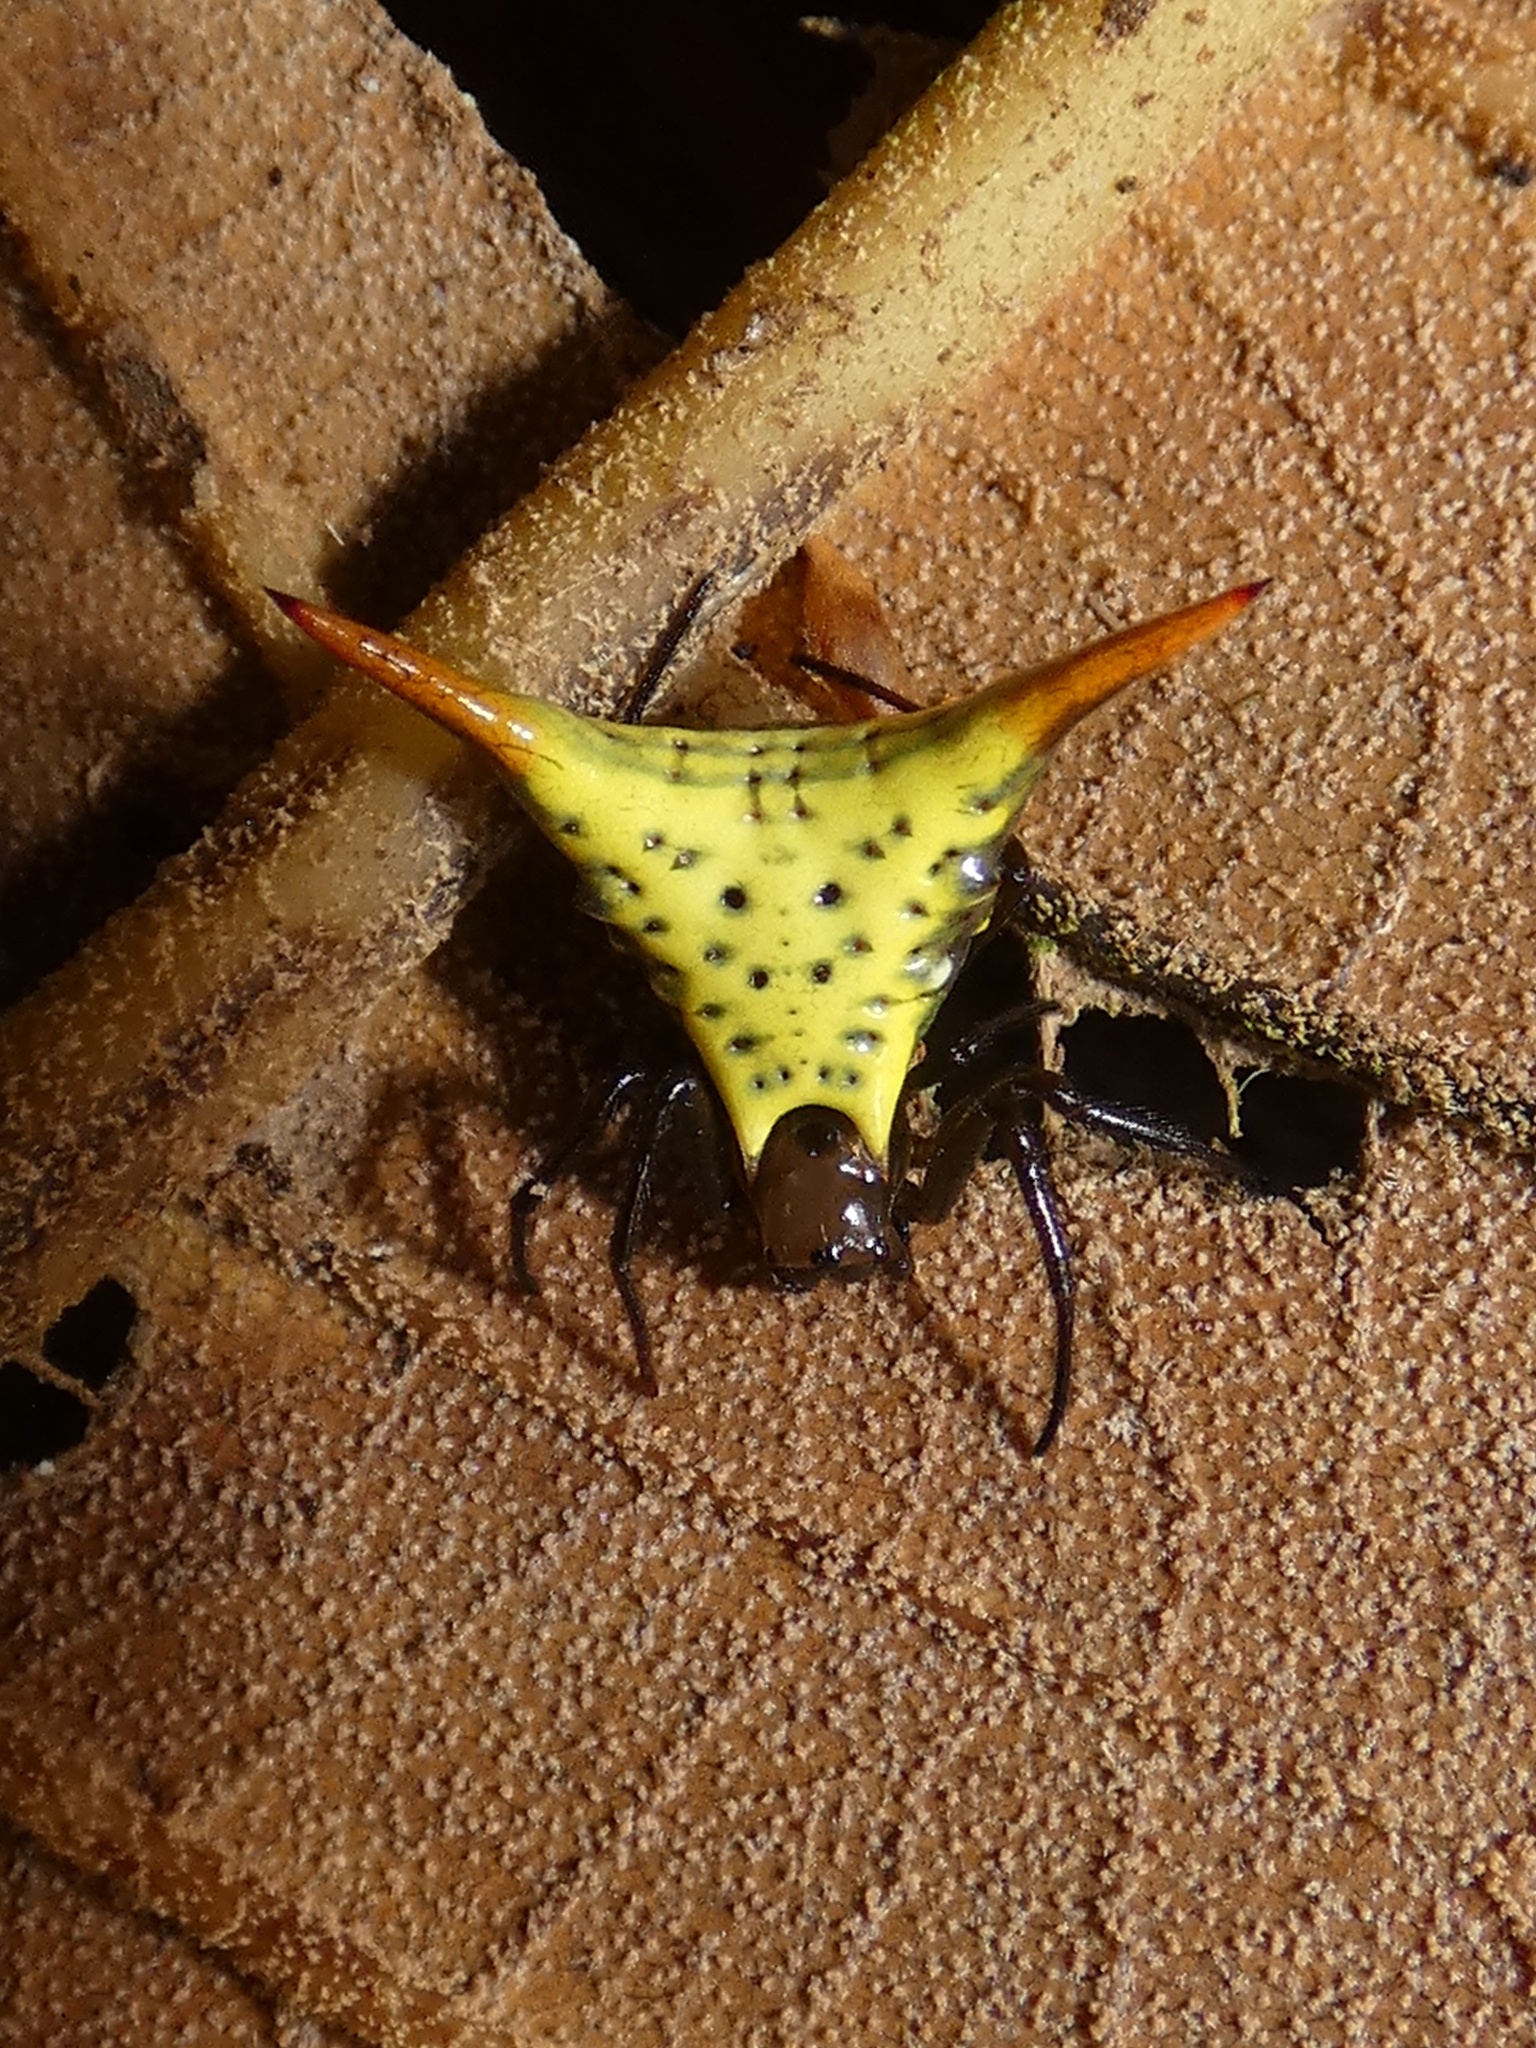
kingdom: Animalia
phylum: Arthropoda
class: Arachnida
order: Araneae
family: Araneidae
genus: Micrathena
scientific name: Micrathena lucasi
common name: Orb weavers
